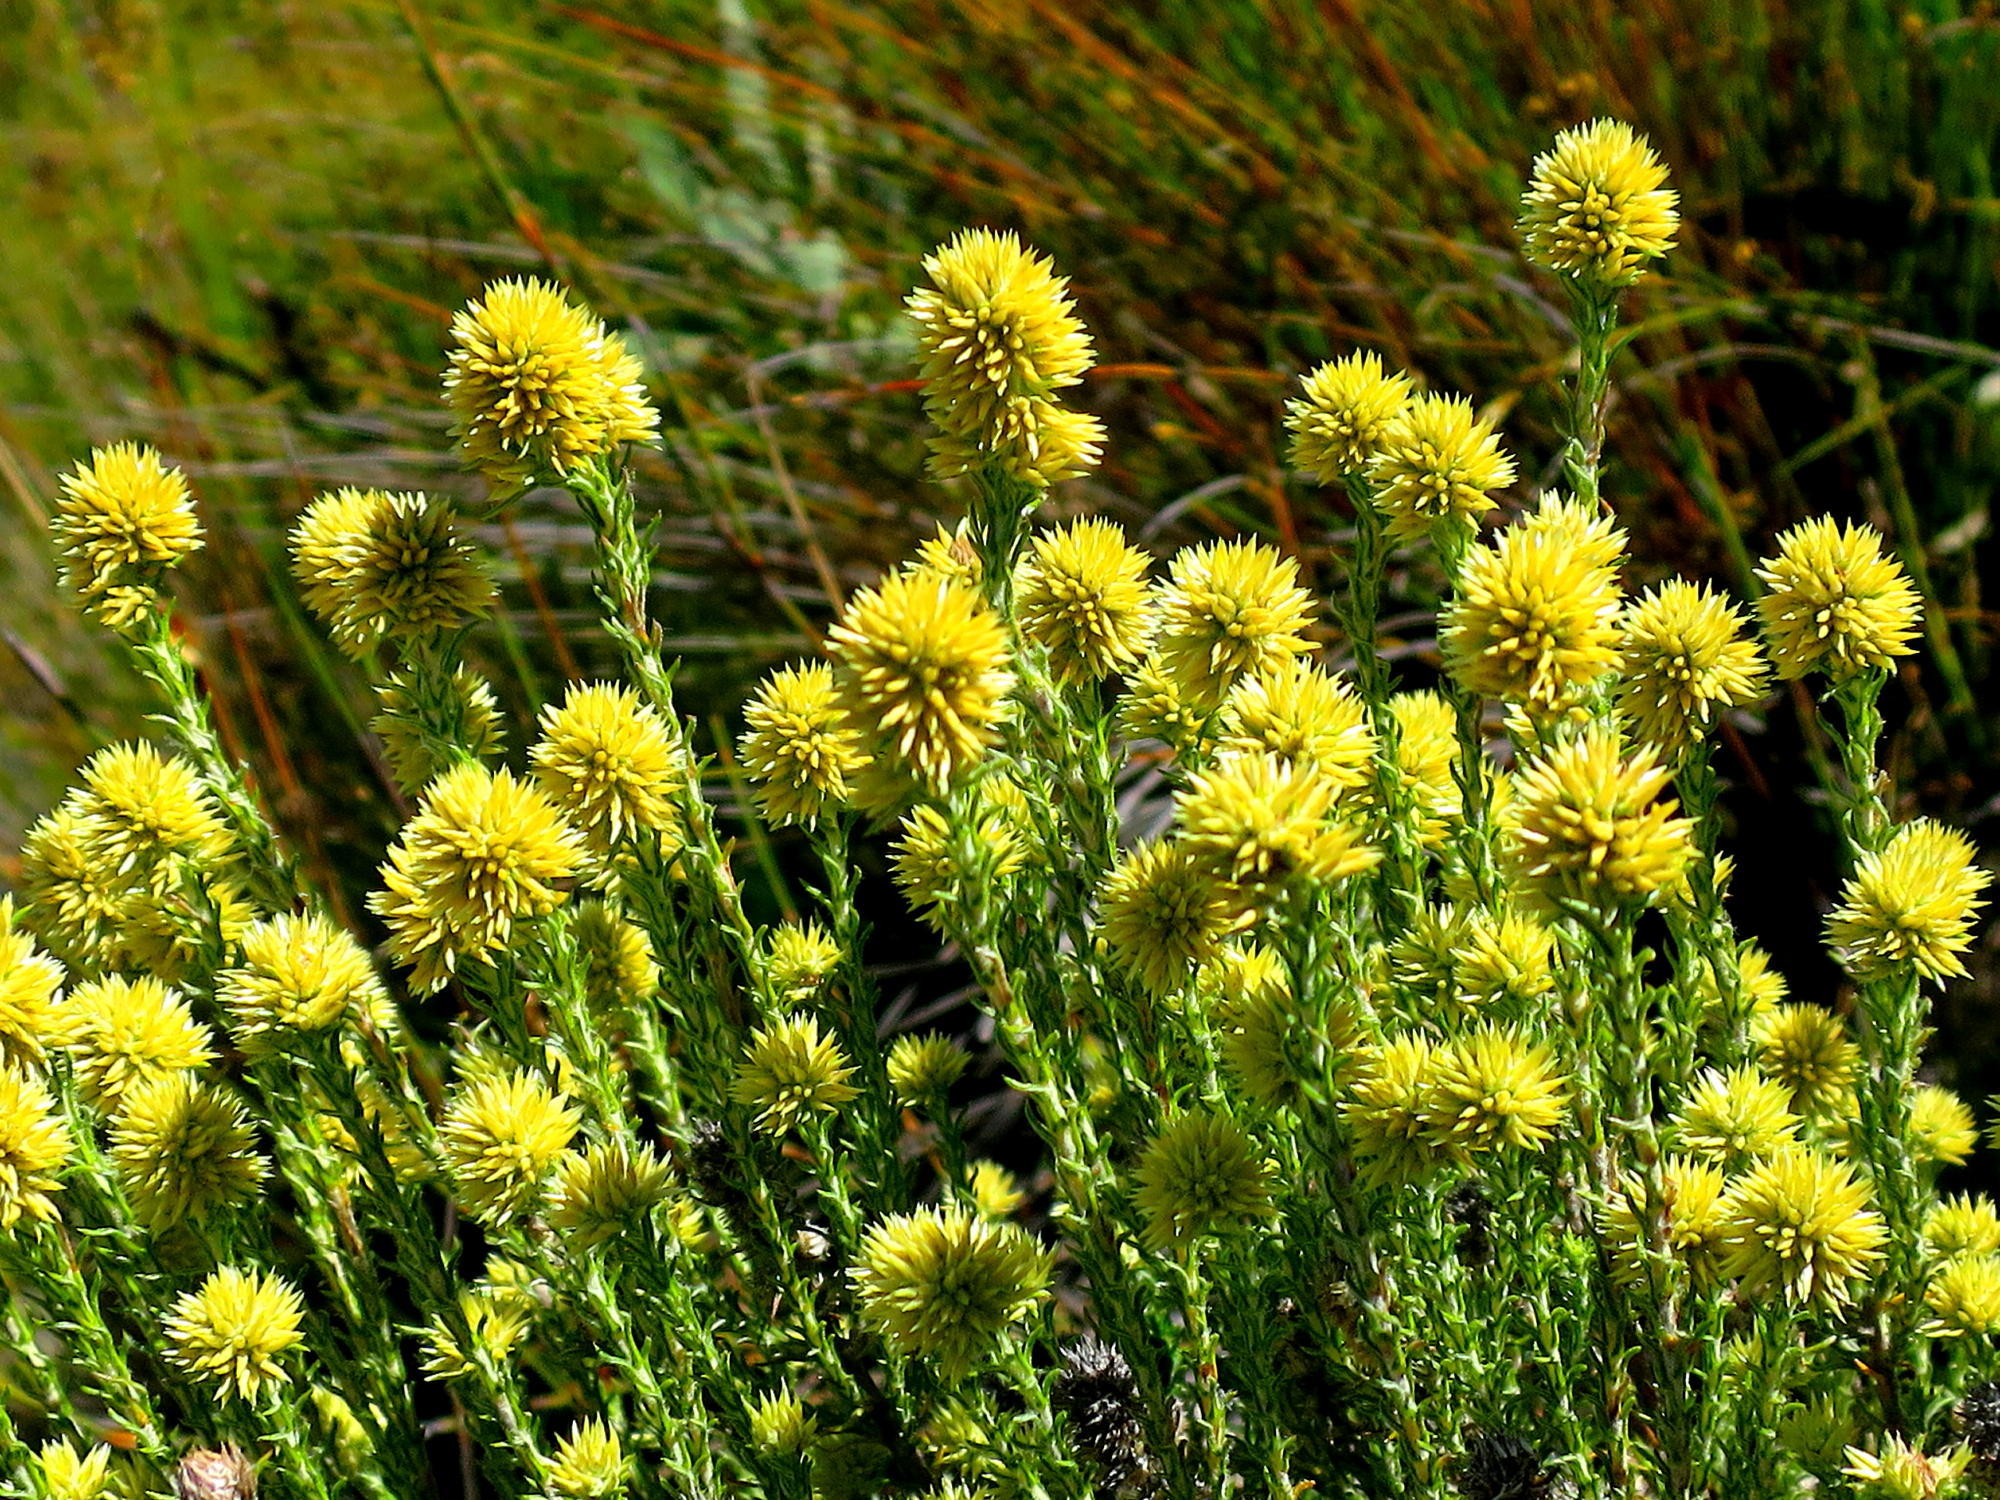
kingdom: Plantae
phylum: Tracheophyta
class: Magnoliopsida
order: Asterales
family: Asteraceae
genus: Seriphium
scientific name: Seriphium spirale
